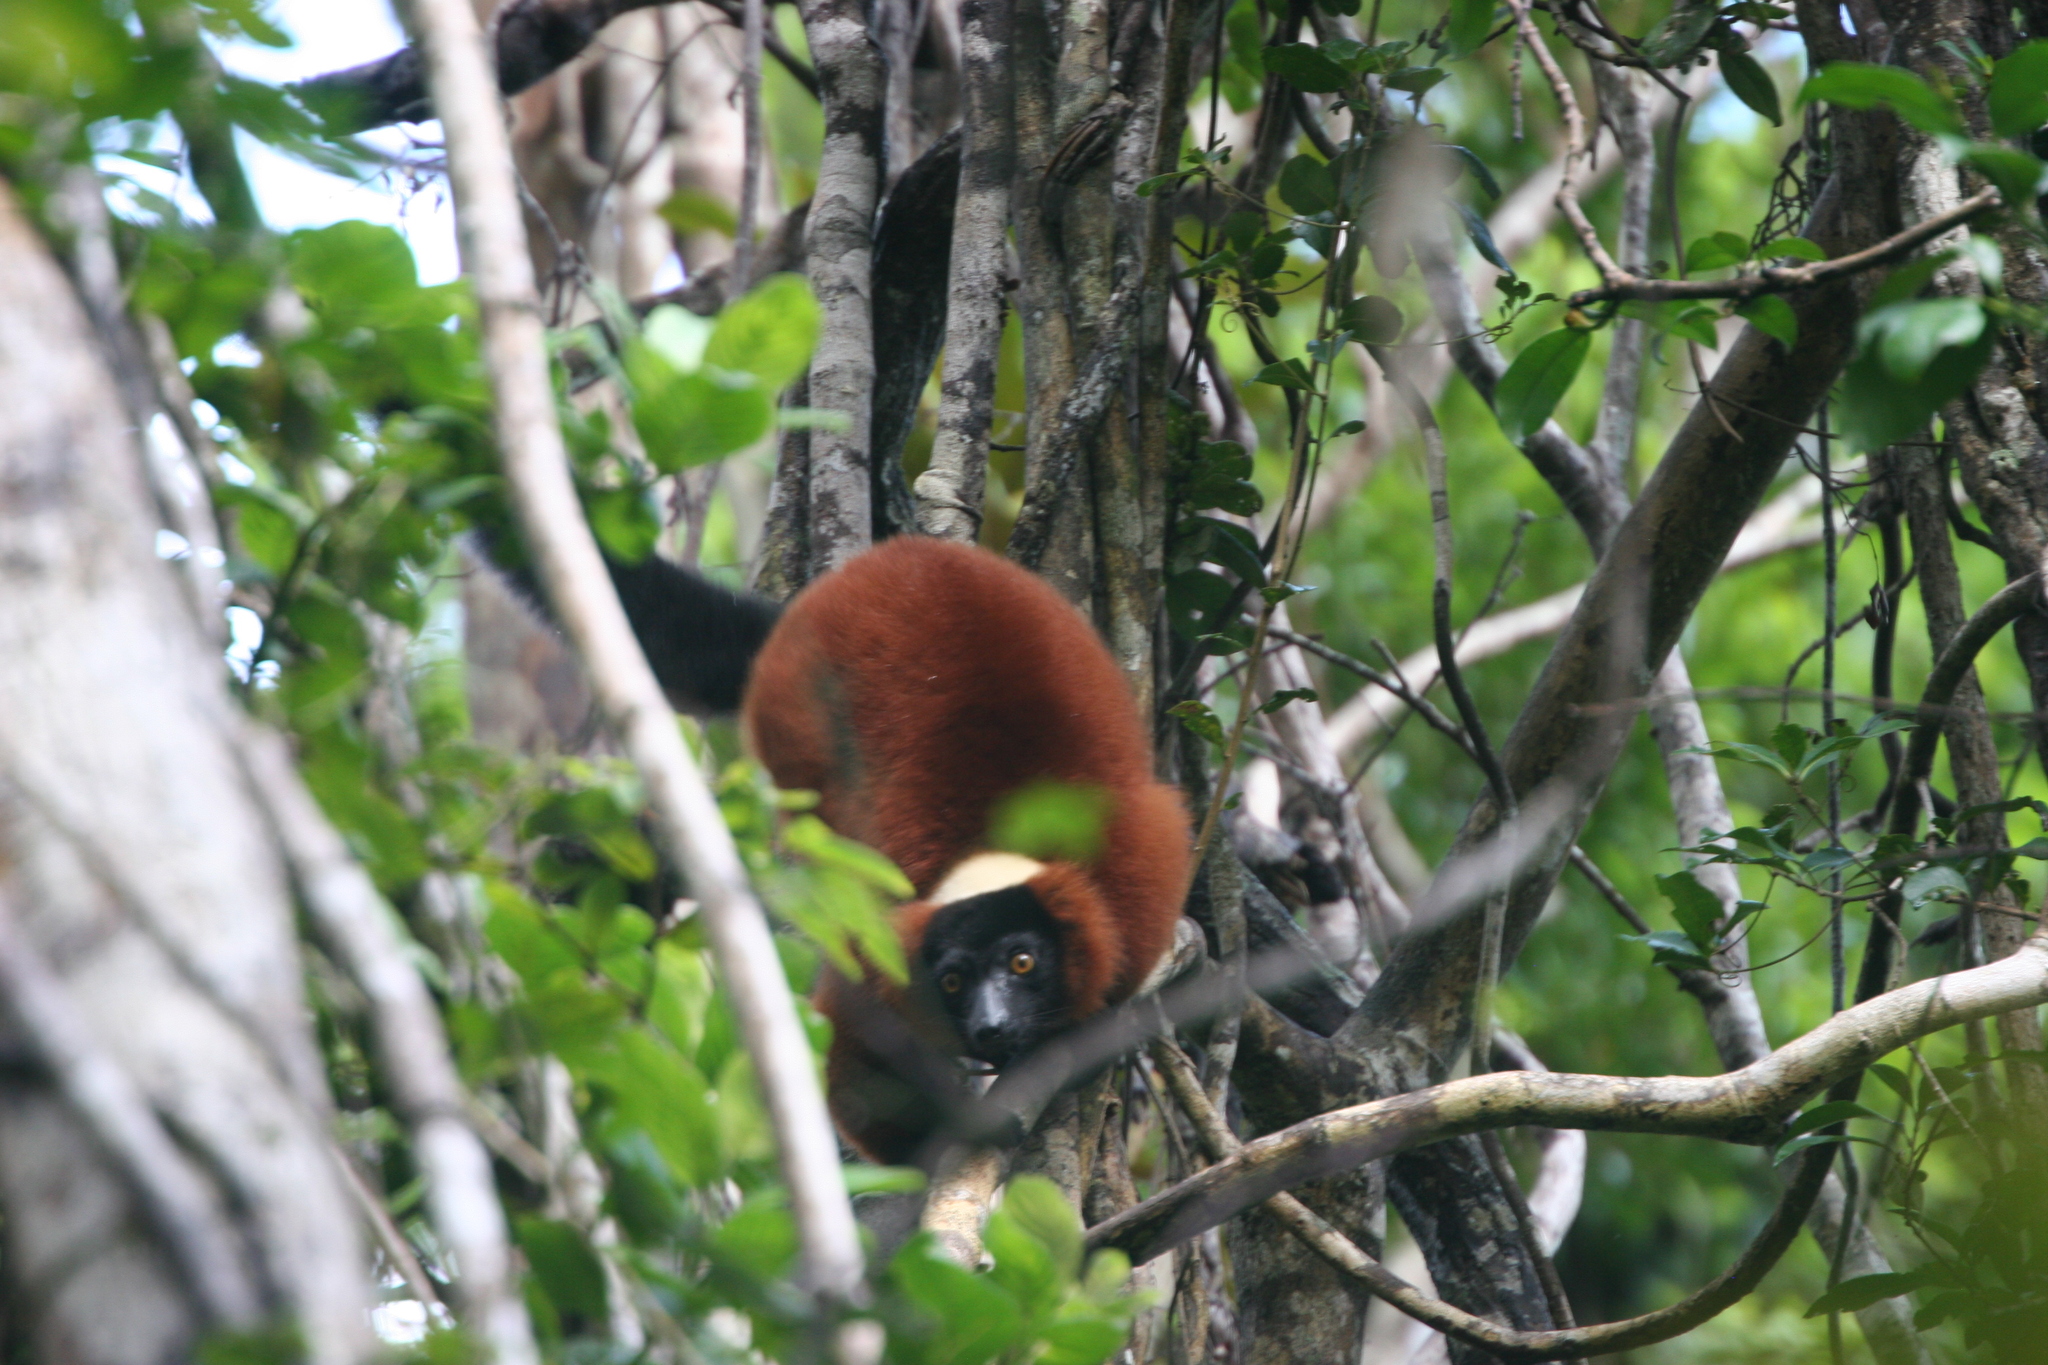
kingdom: Animalia
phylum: Chordata
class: Mammalia
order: Primates
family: Lemuridae
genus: Varecia
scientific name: Varecia rubra
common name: Red ruffed lemur
